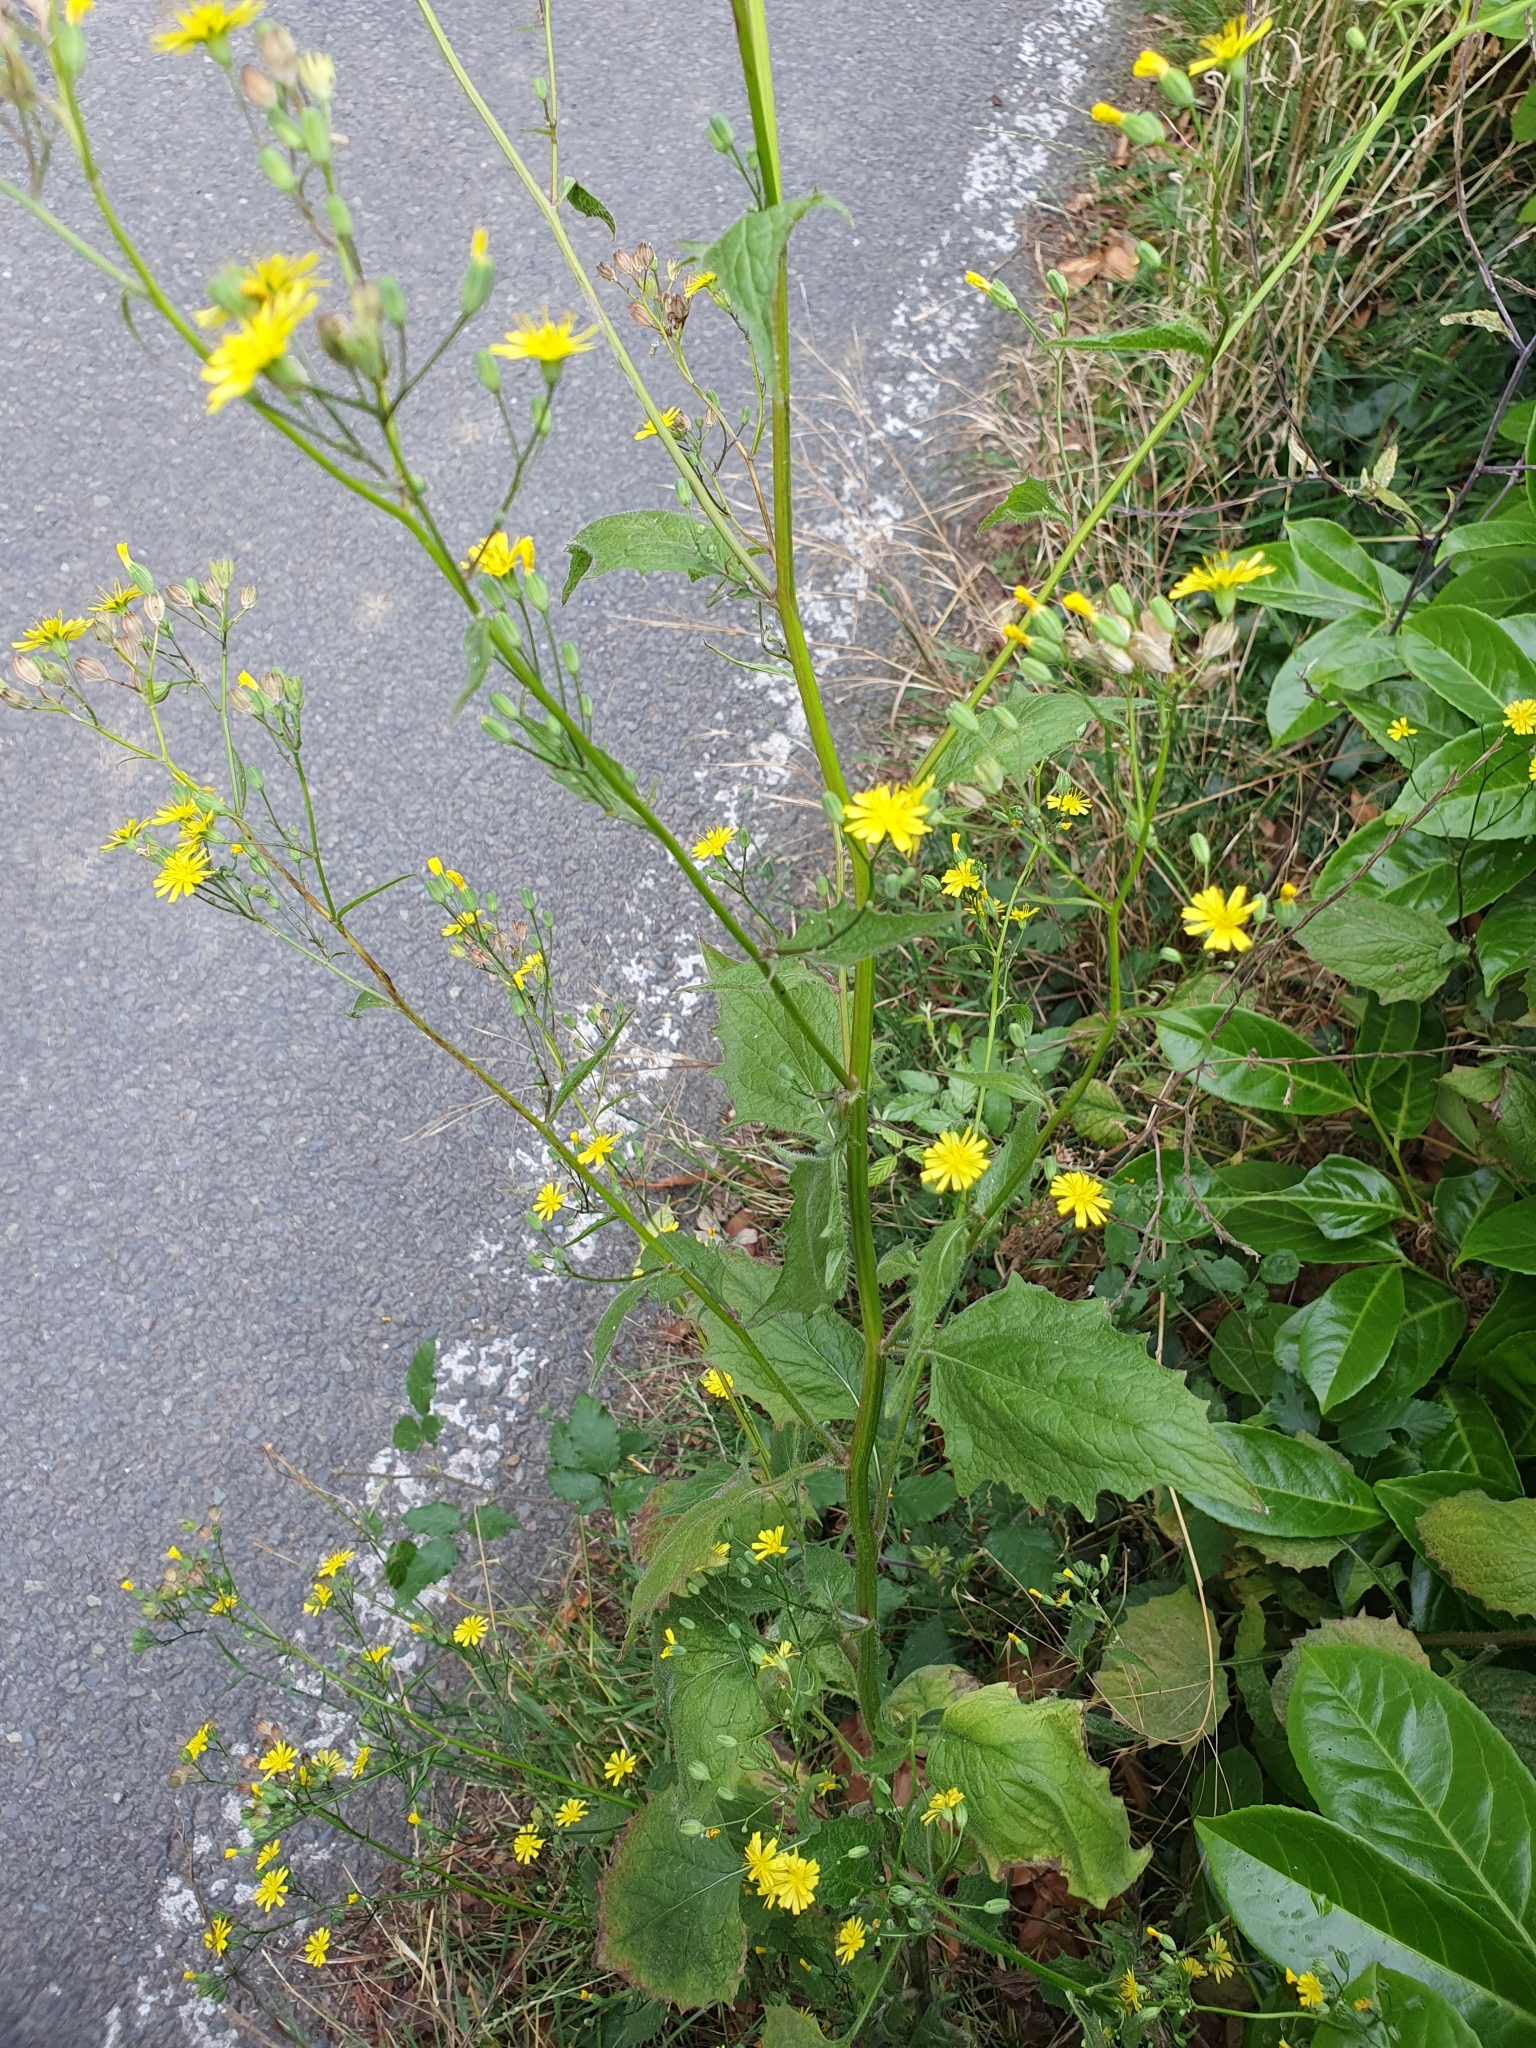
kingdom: Plantae
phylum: Tracheophyta
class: Magnoliopsida
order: Asterales
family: Asteraceae
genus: Lapsana
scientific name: Lapsana communis
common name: Nipplewort
